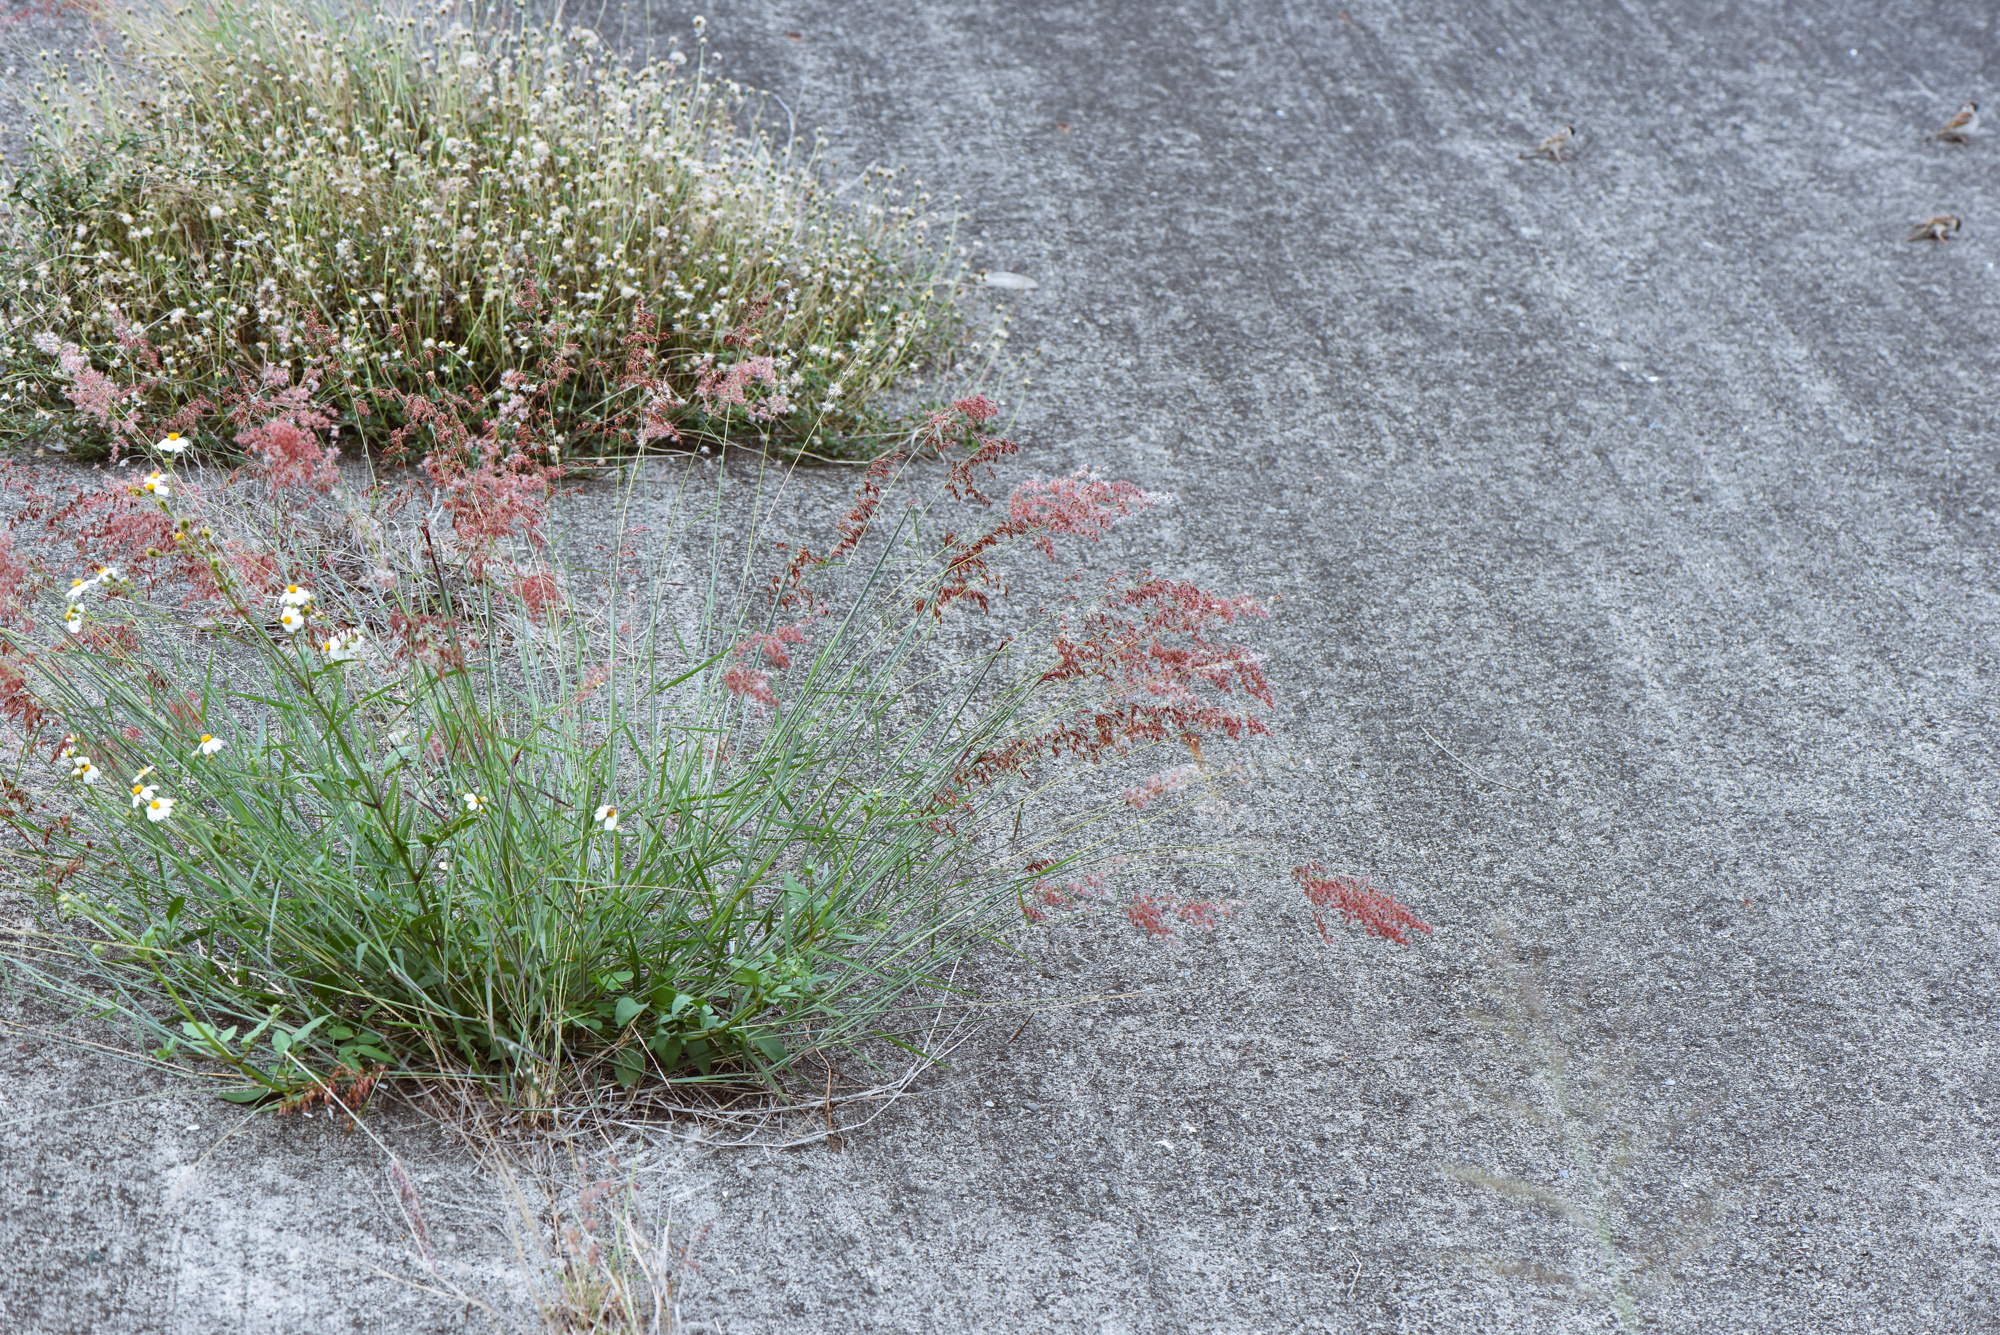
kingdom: Plantae
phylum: Tracheophyta
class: Liliopsida
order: Poales
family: Poaceae
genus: Melinis
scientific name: Melinis repens
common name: Rose natal grass
